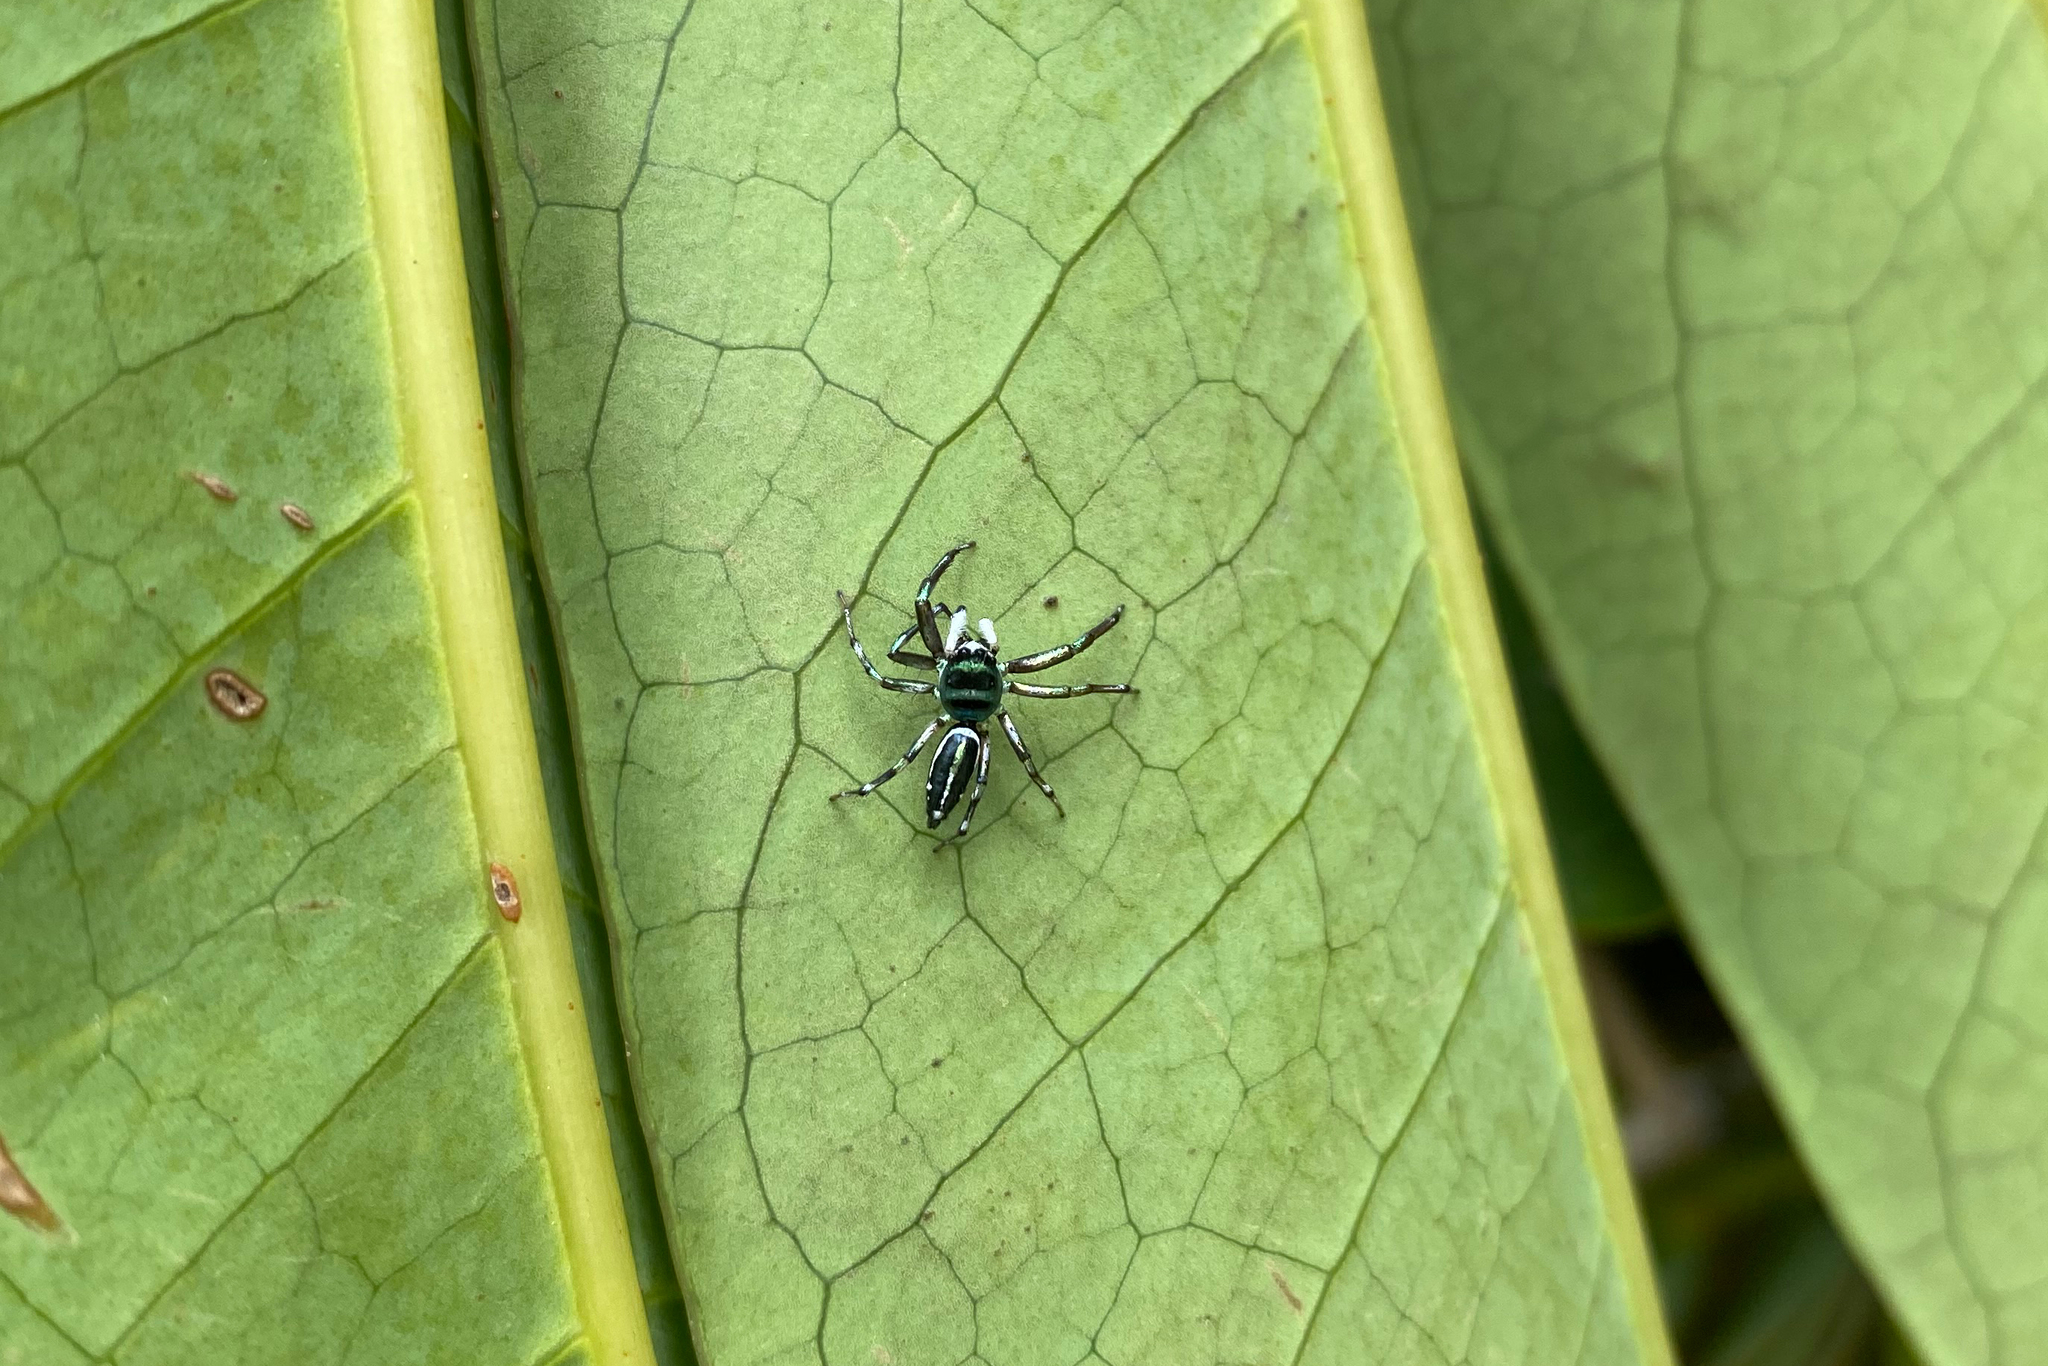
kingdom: Animalia
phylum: Arthropoda
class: Arachnida
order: Araneae
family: Salticidae
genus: Cosmophasis
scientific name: Cosmophasis thalassina
